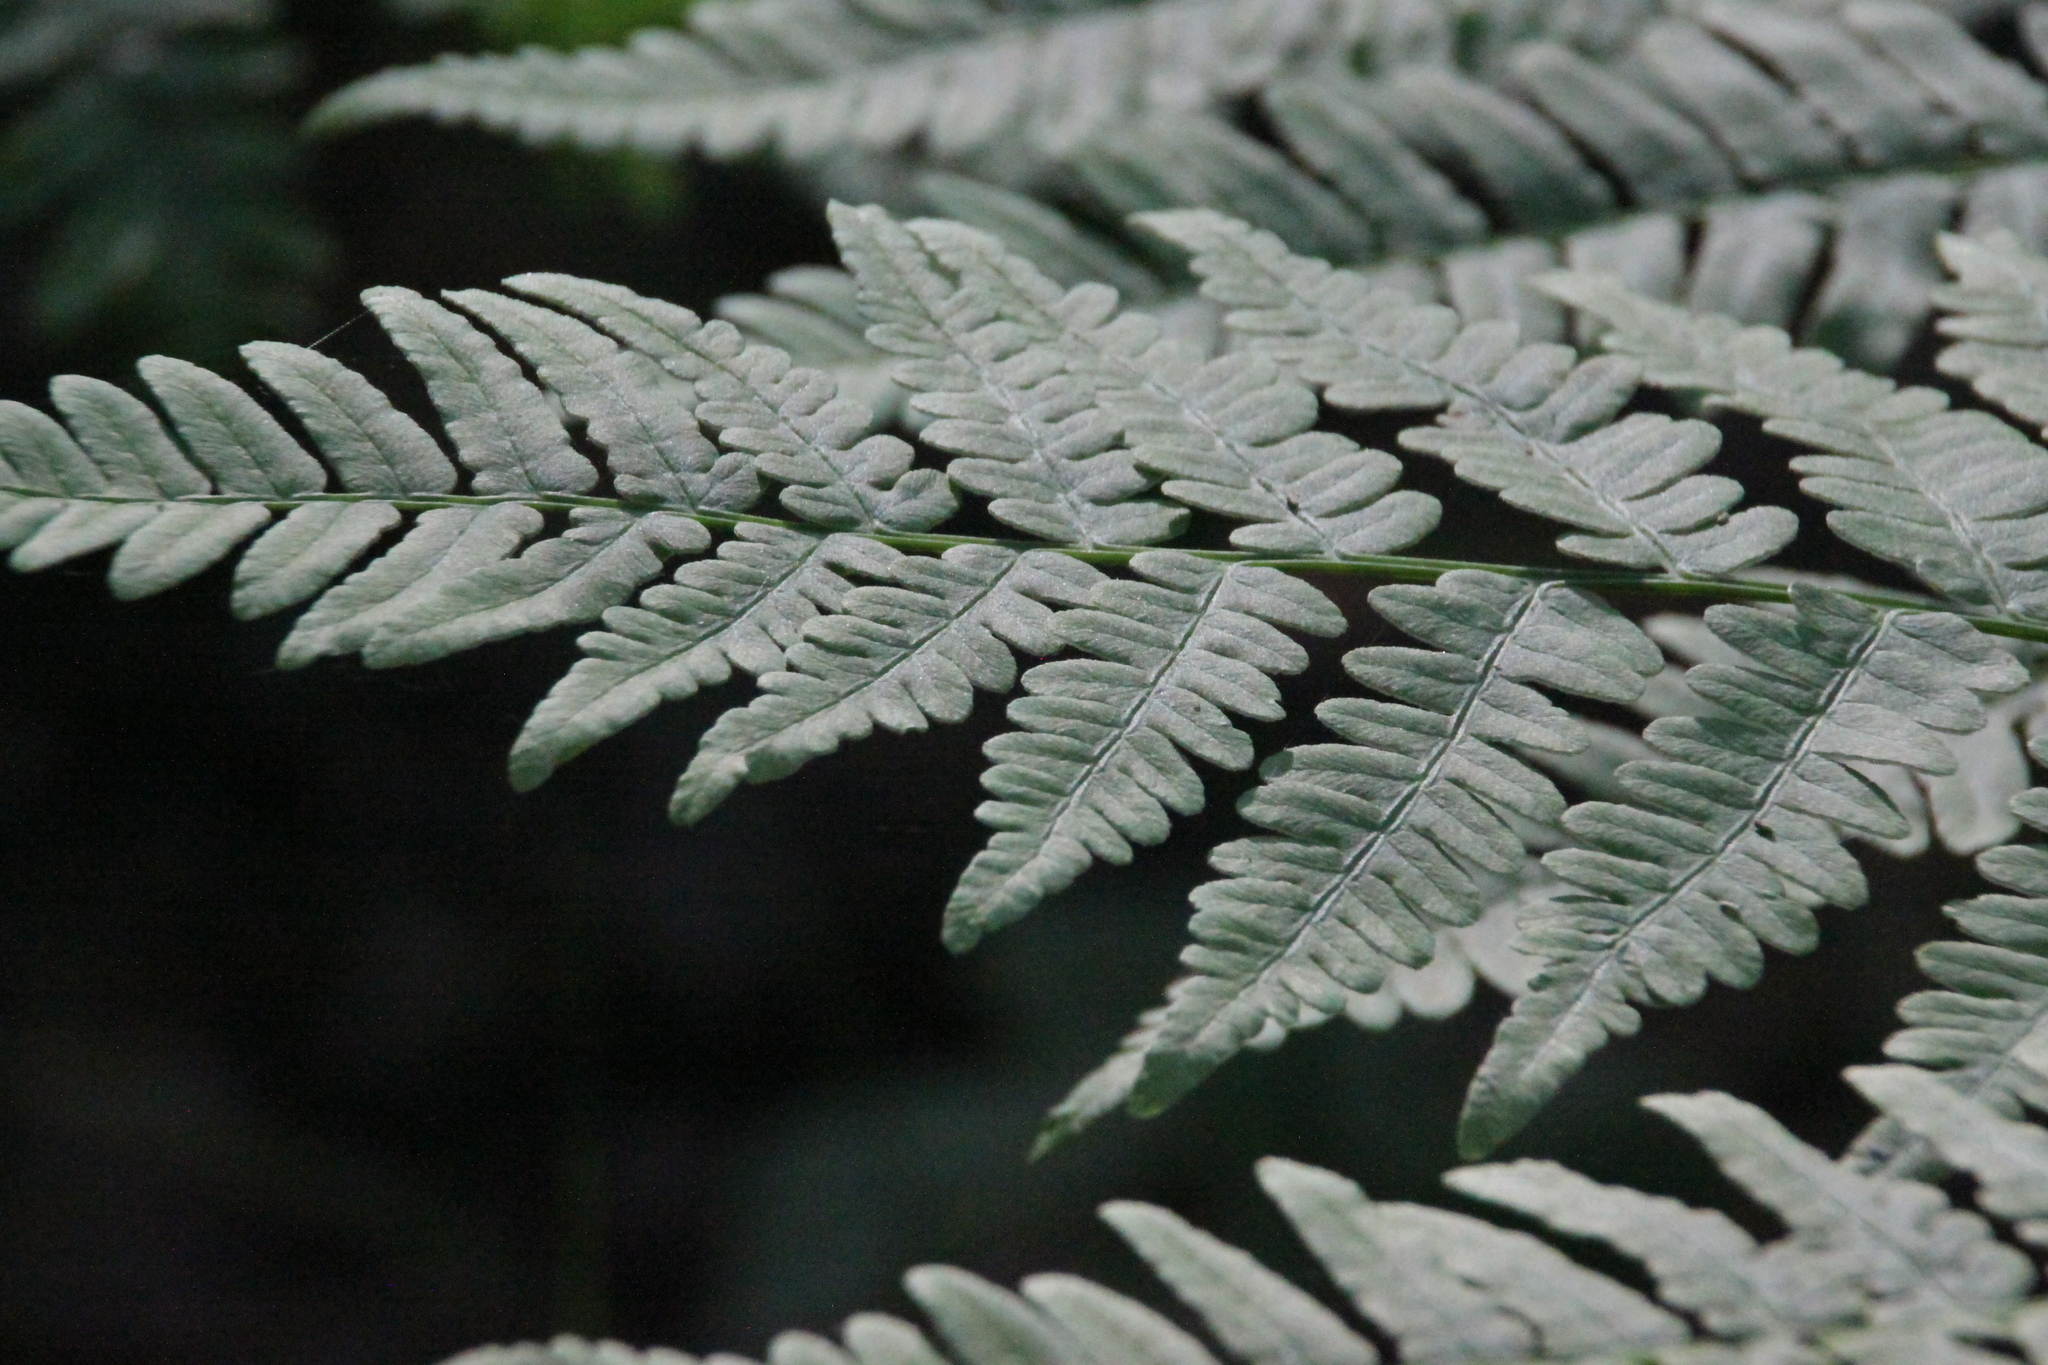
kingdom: Plantae
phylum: Tracheophyta
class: Polypodiopsida
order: Polypodiales
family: Dennstaedtiaceae
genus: Pteridium
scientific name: Pteridium aquilinum
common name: Bracken
